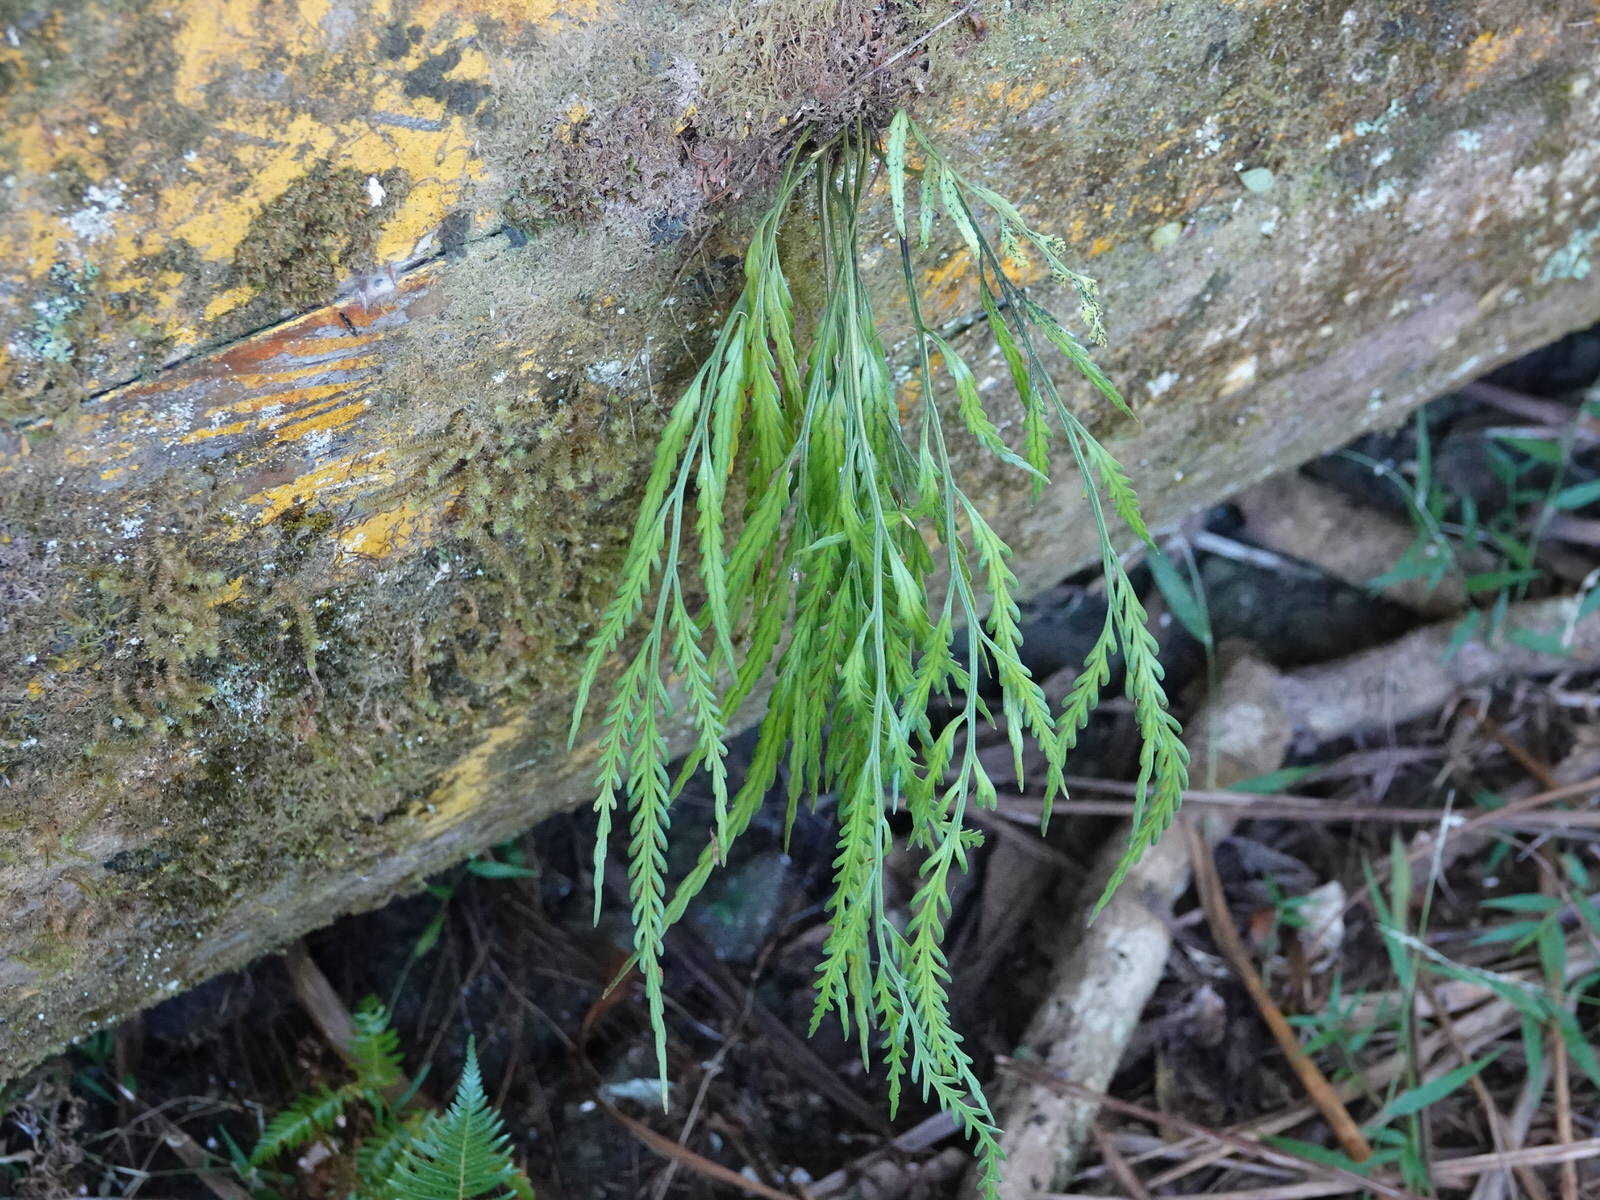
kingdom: Plantae
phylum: Tracheophyta
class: Polypodiopsida
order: Polypodiales
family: Aspleniaceae
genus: Asplenium
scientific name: Asplenium flaccidum
